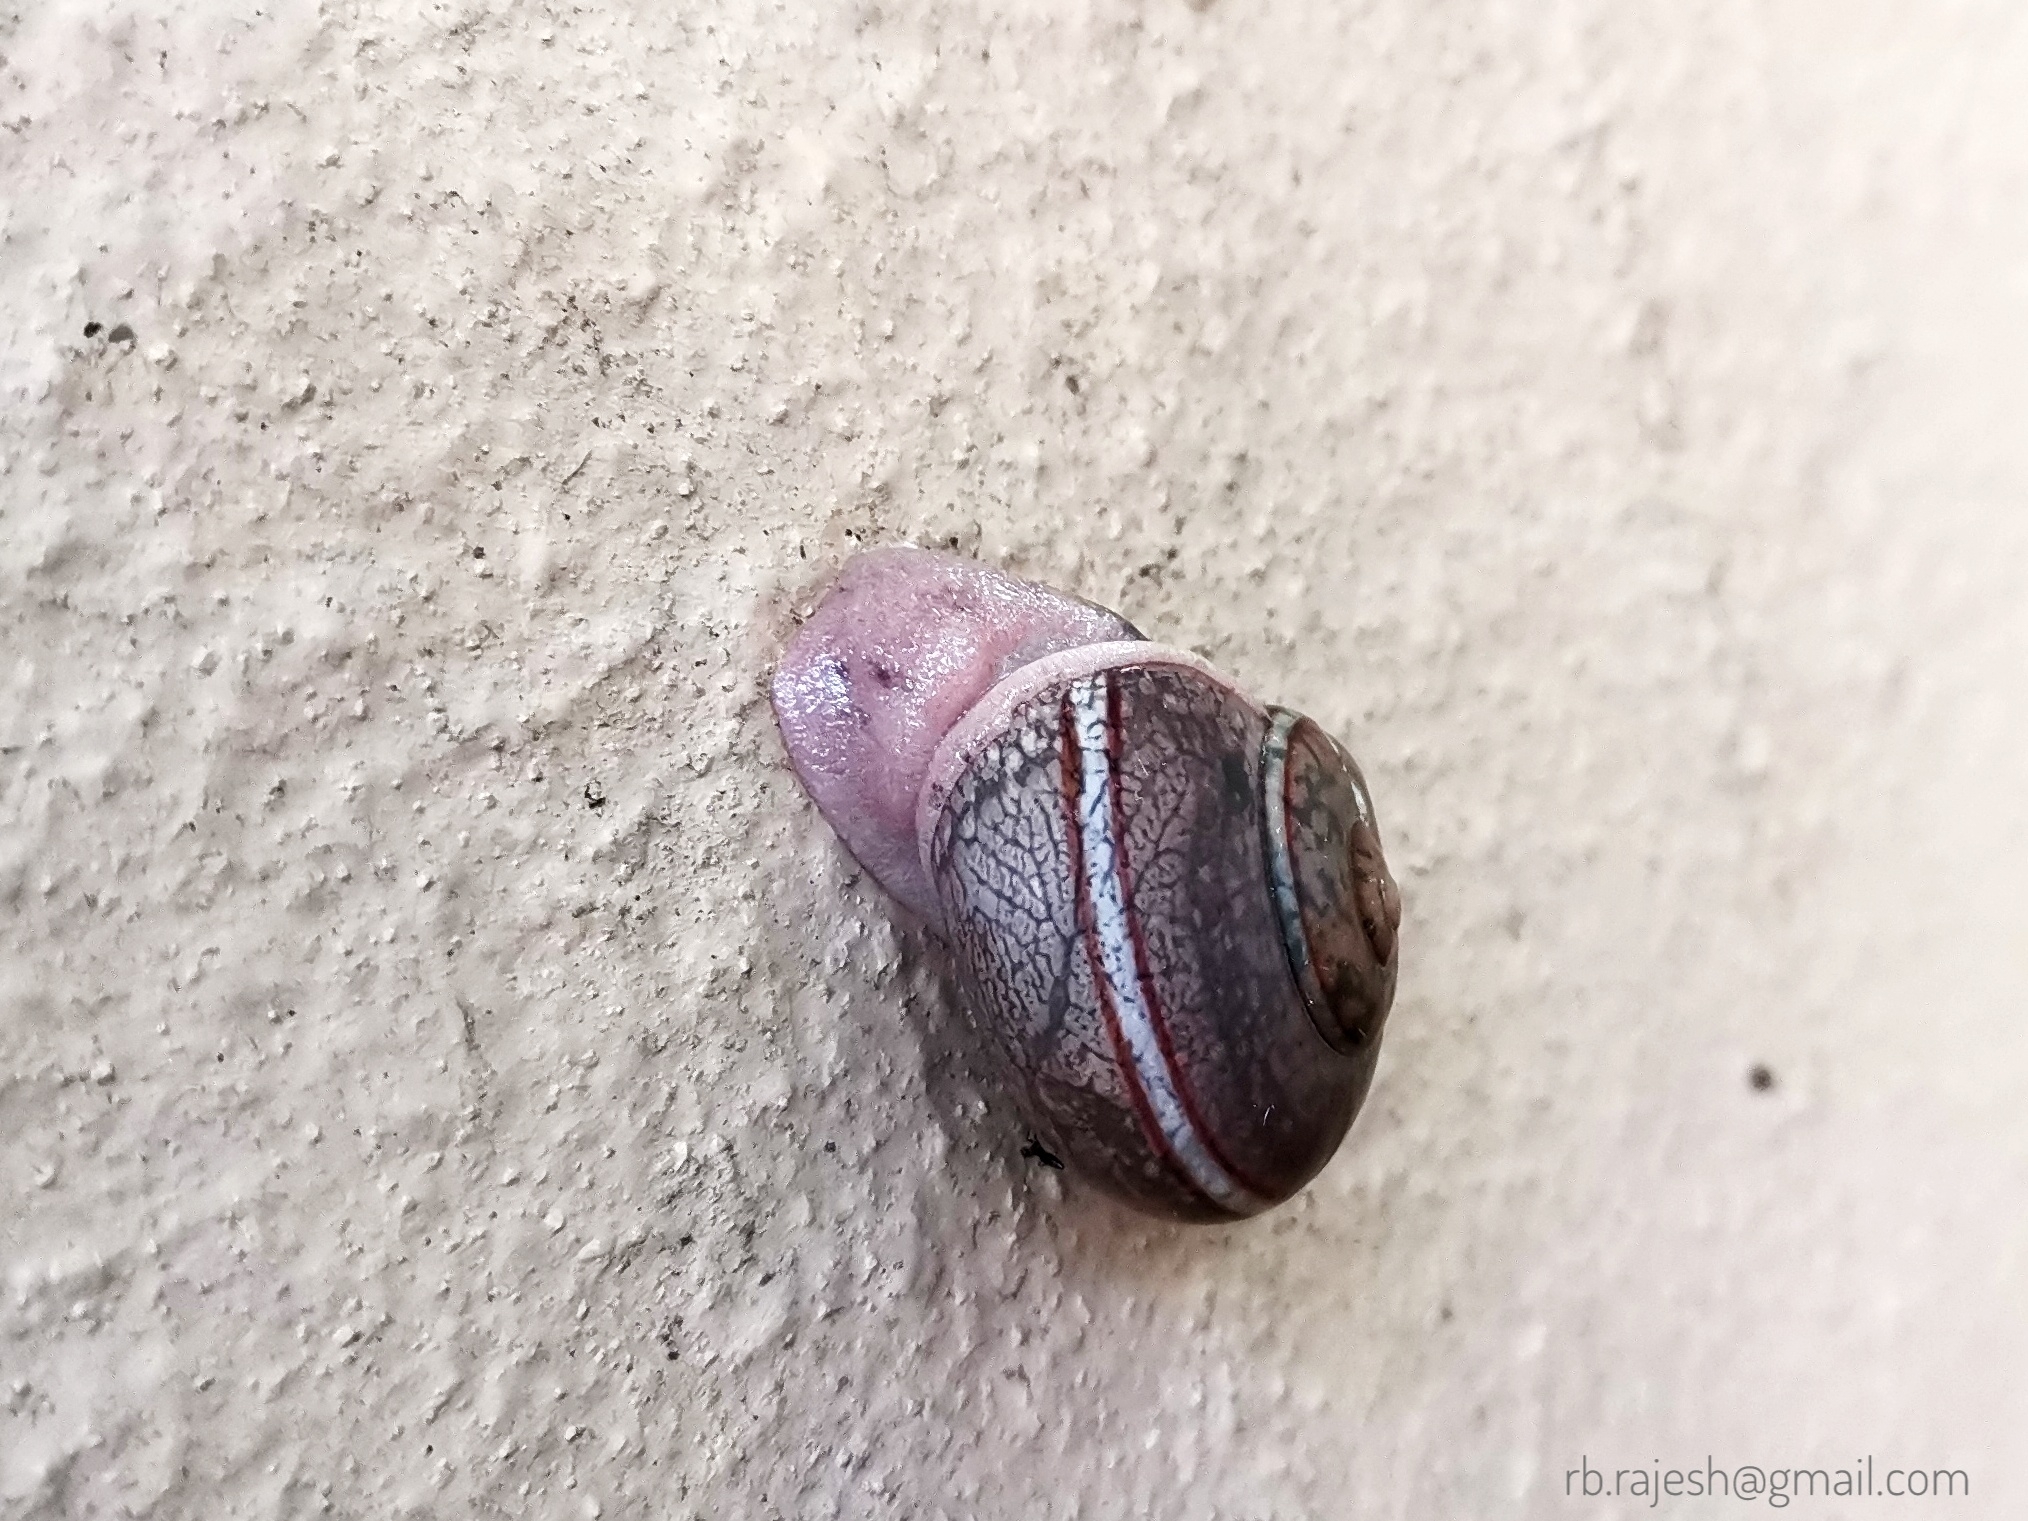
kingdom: Animalia
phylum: Mollusca
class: Gastropoda
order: Stylommatophora
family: Ariophantidae
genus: Ariophanta
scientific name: Ariophanta exilis
